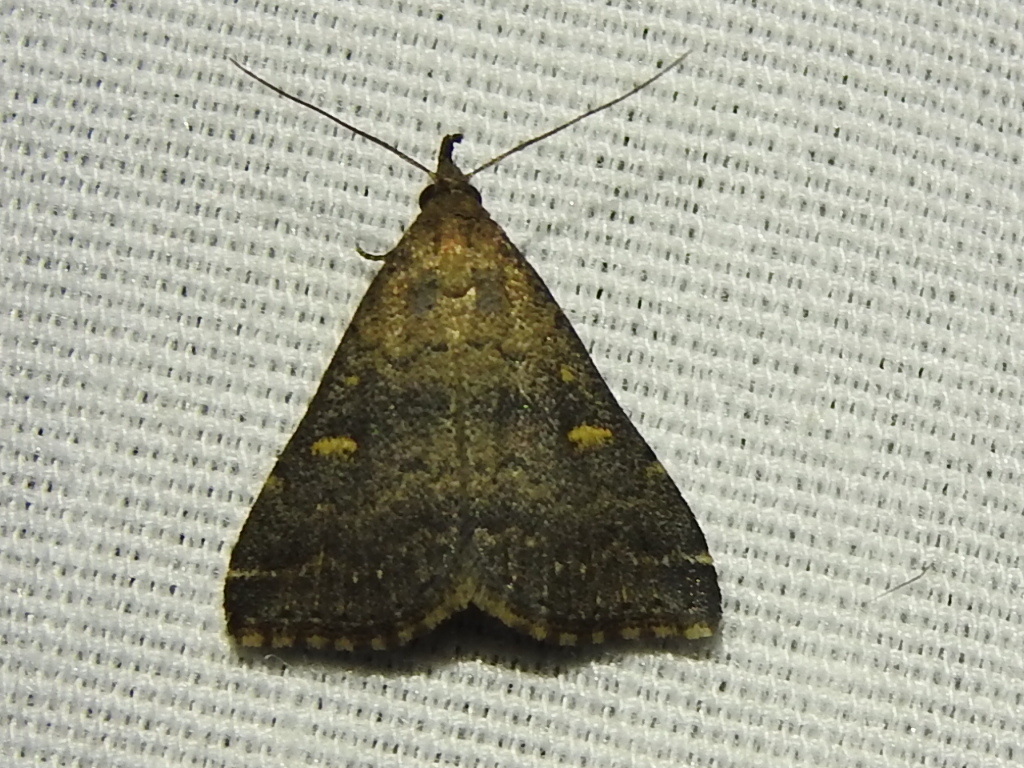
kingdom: Animalia
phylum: Arthropoda
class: Insecta
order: Lepidoptera
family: Erebidae
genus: Tetanolita
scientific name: Tetanolita mynesalis
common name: Smoky tetanolita moth
